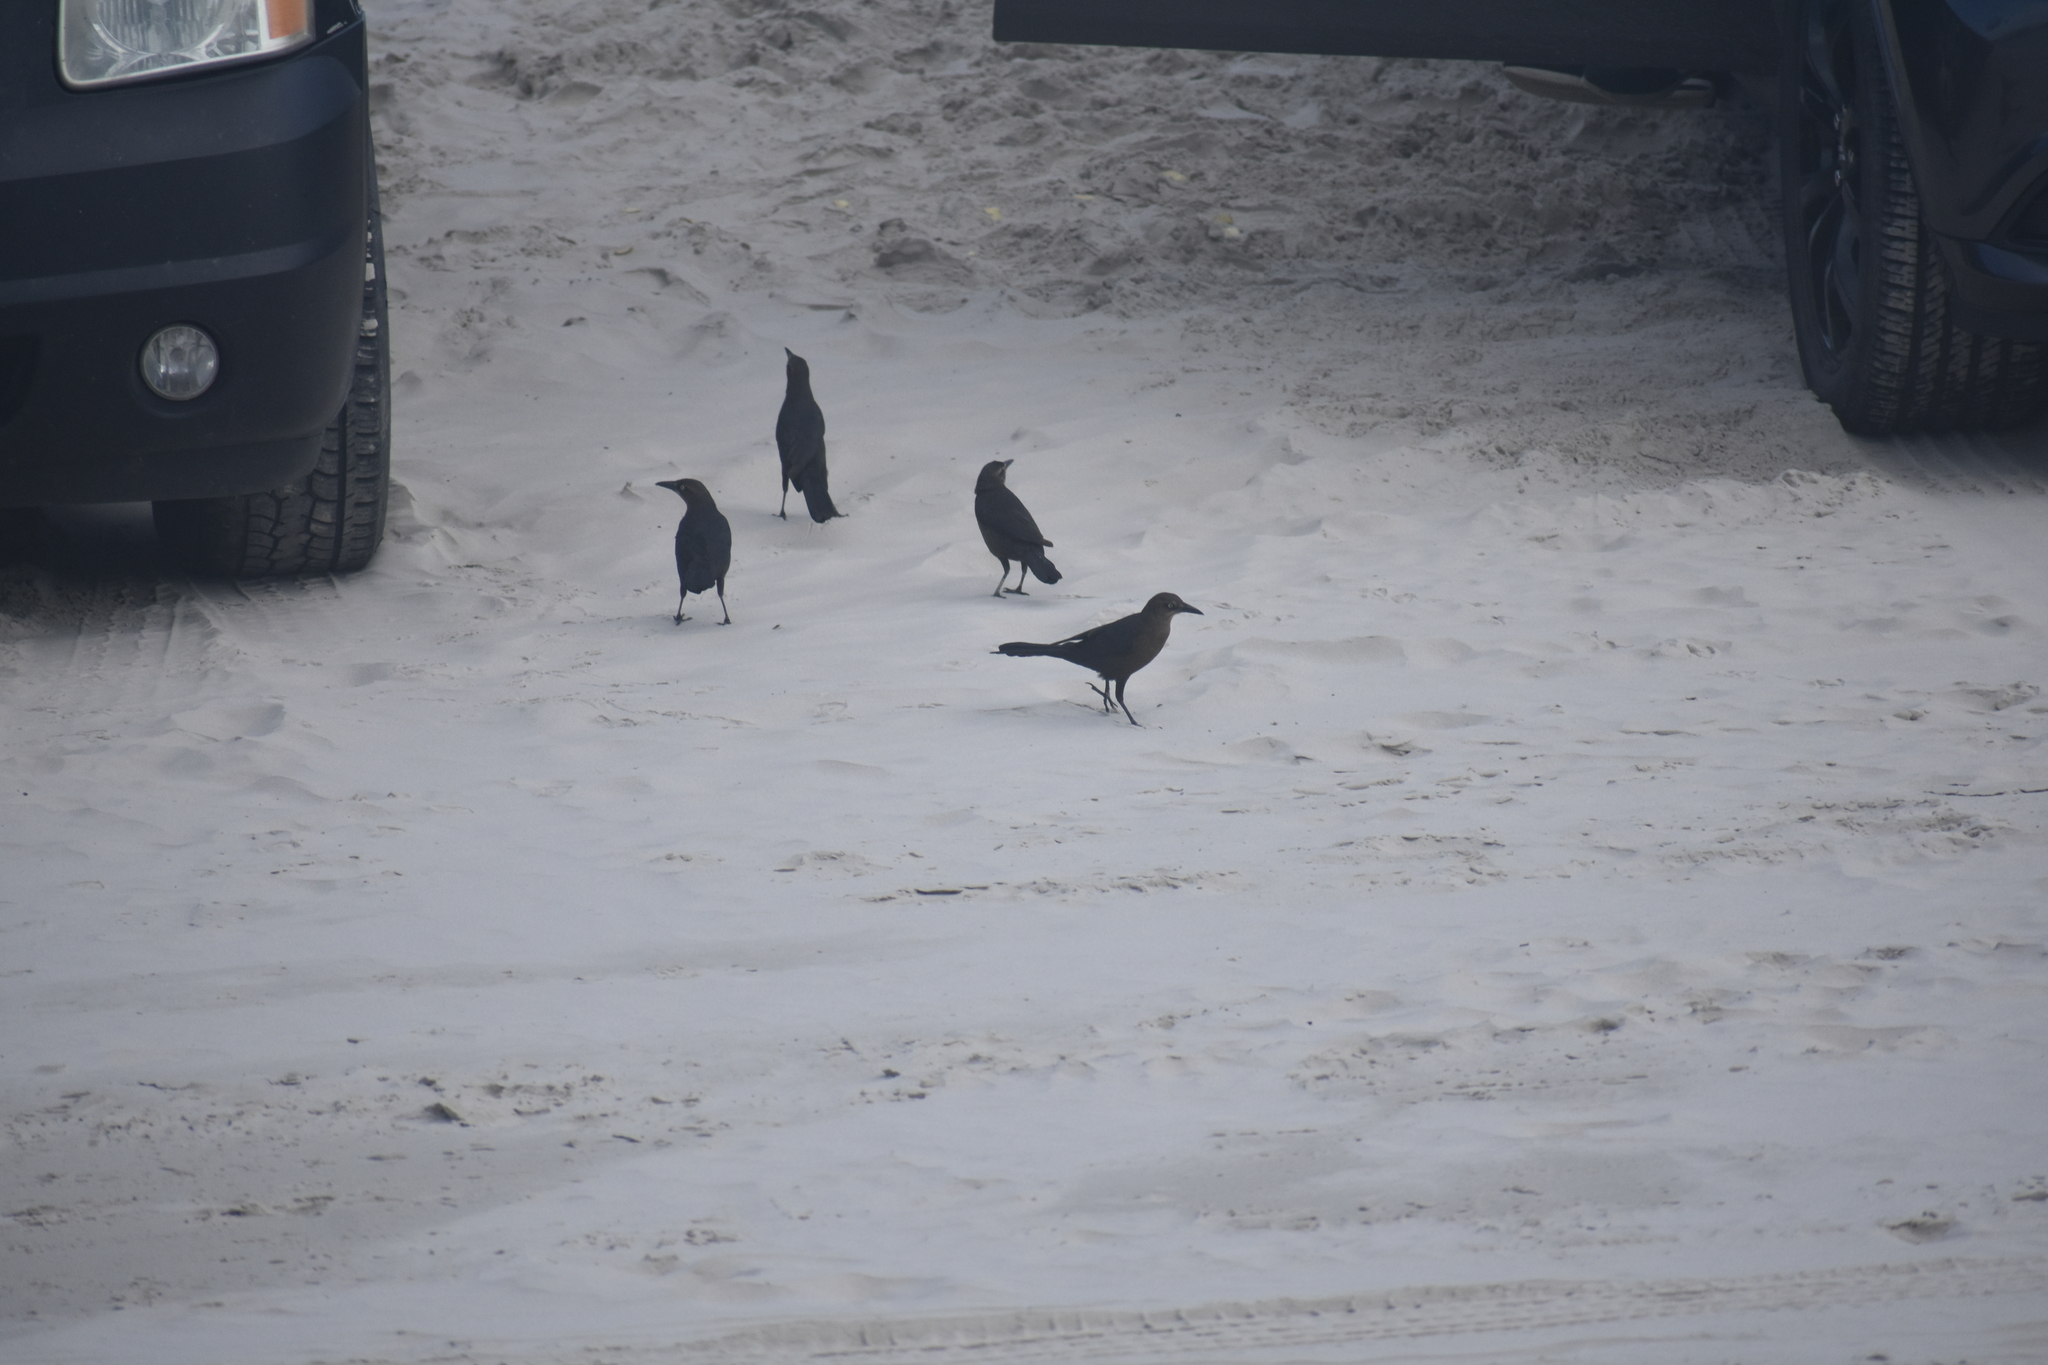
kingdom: Animalia
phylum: Chordata
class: Aves
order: Passeriformes
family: Icteridae
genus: Quiscalus
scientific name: Quiscalus mexicanus
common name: Great-tailed grackle
